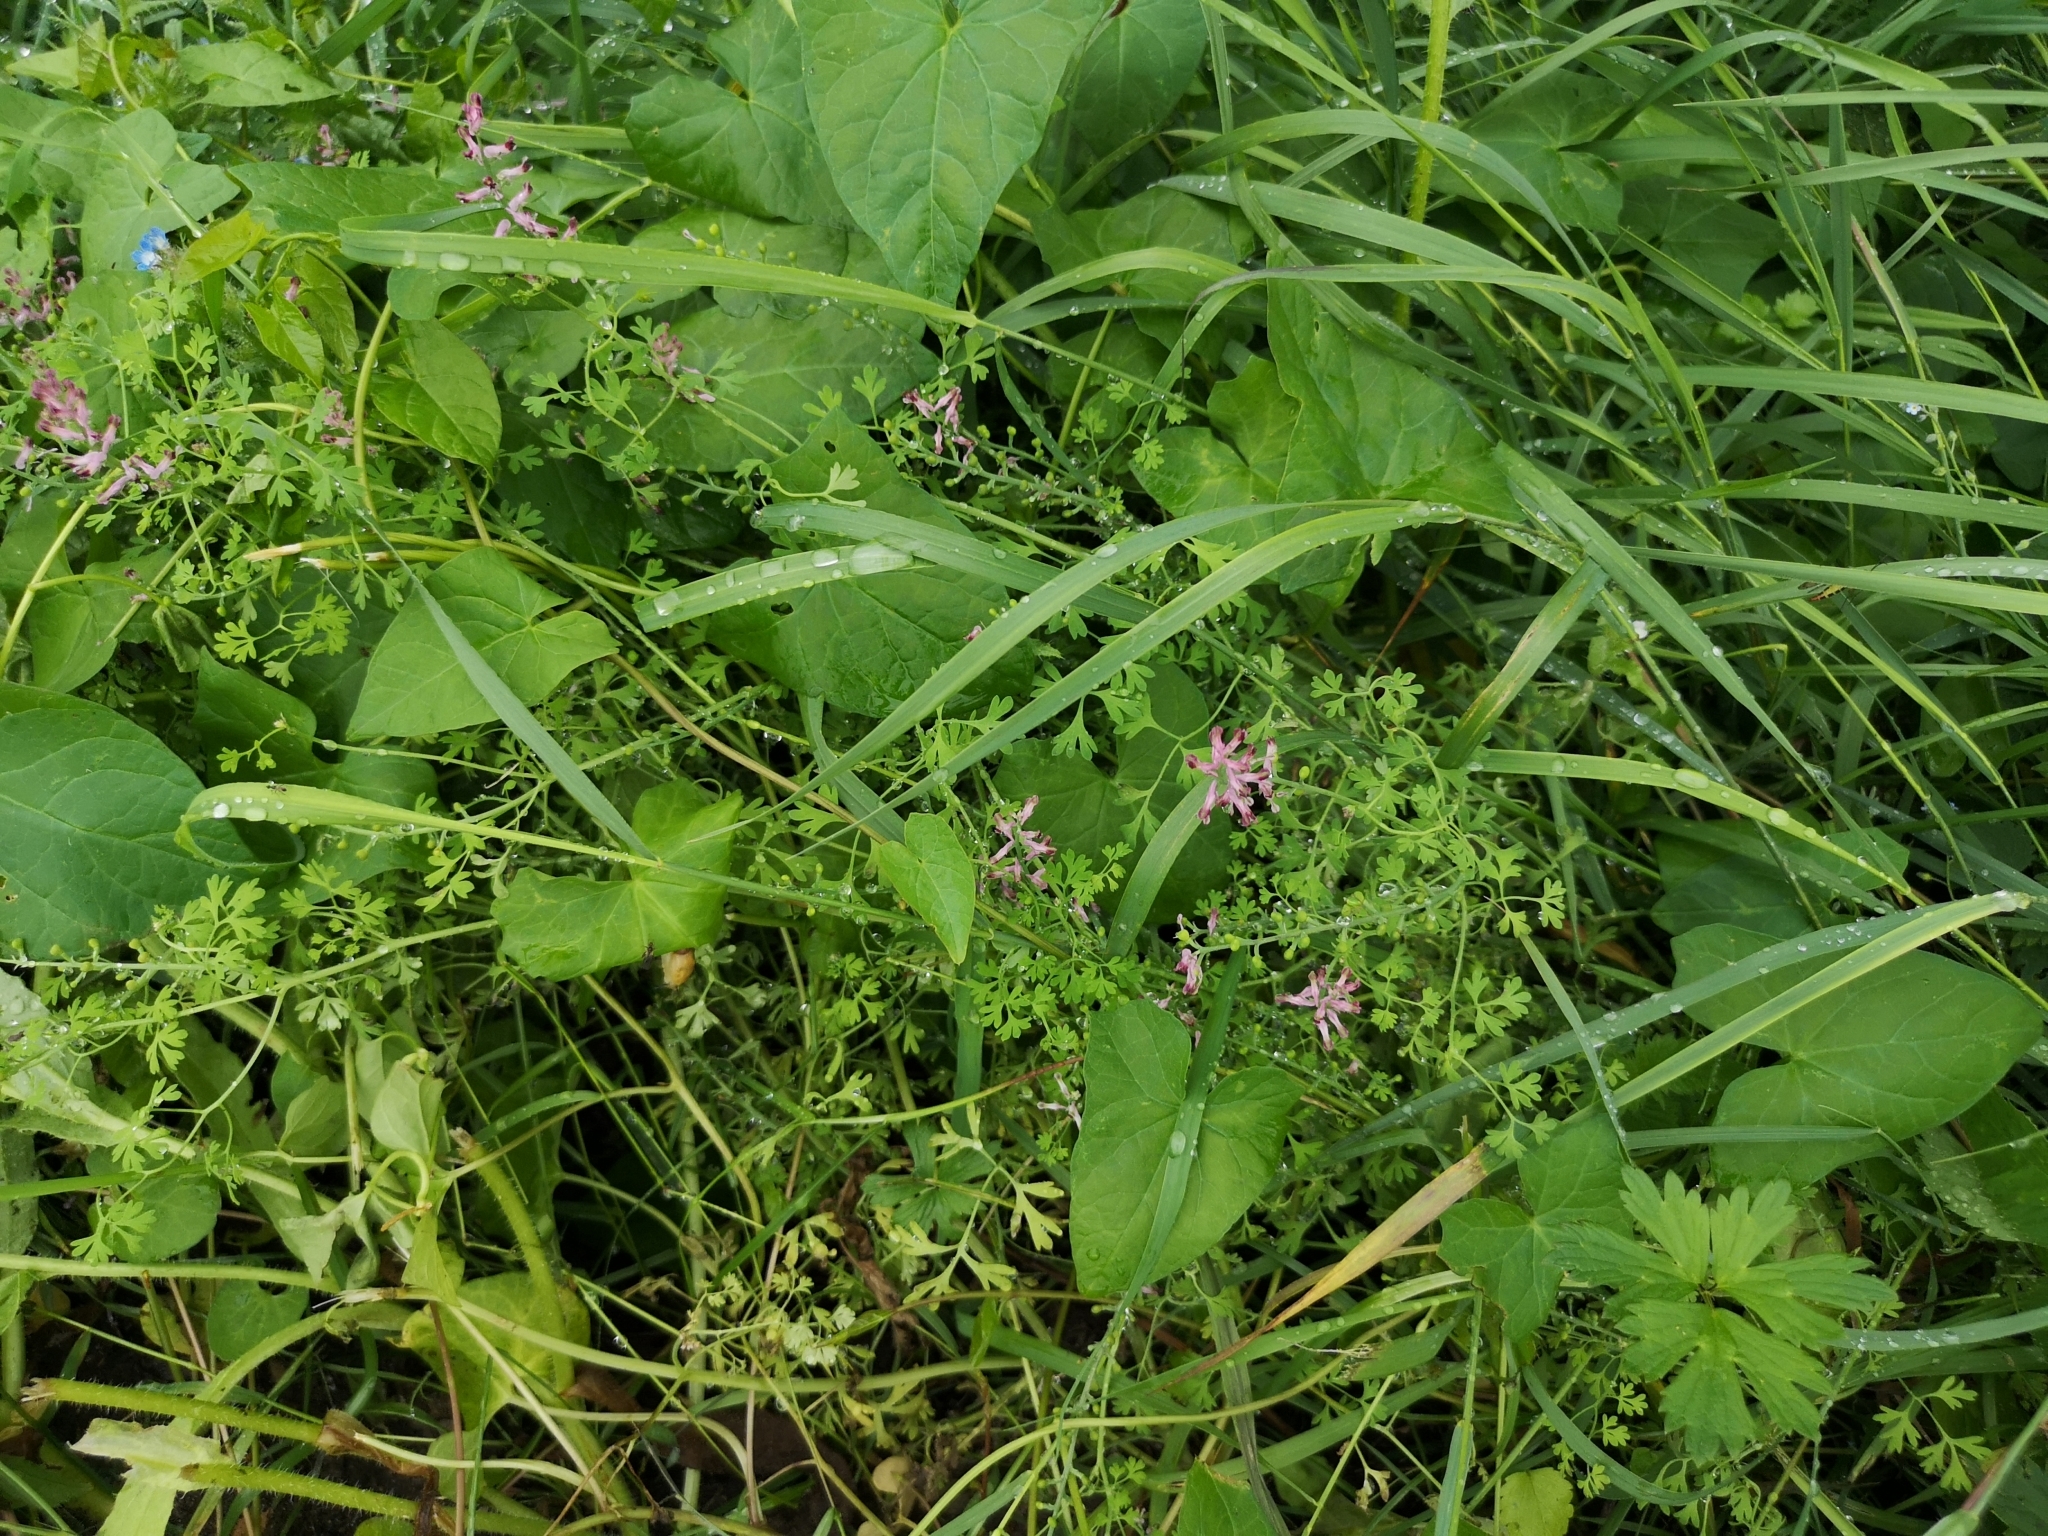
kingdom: Plantae
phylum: Tracheophyta
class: Magnoliopsida
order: Ranunculales
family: Papaveraceae
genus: Fumaria
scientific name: Fumaria officinalis
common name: Common fumitory
